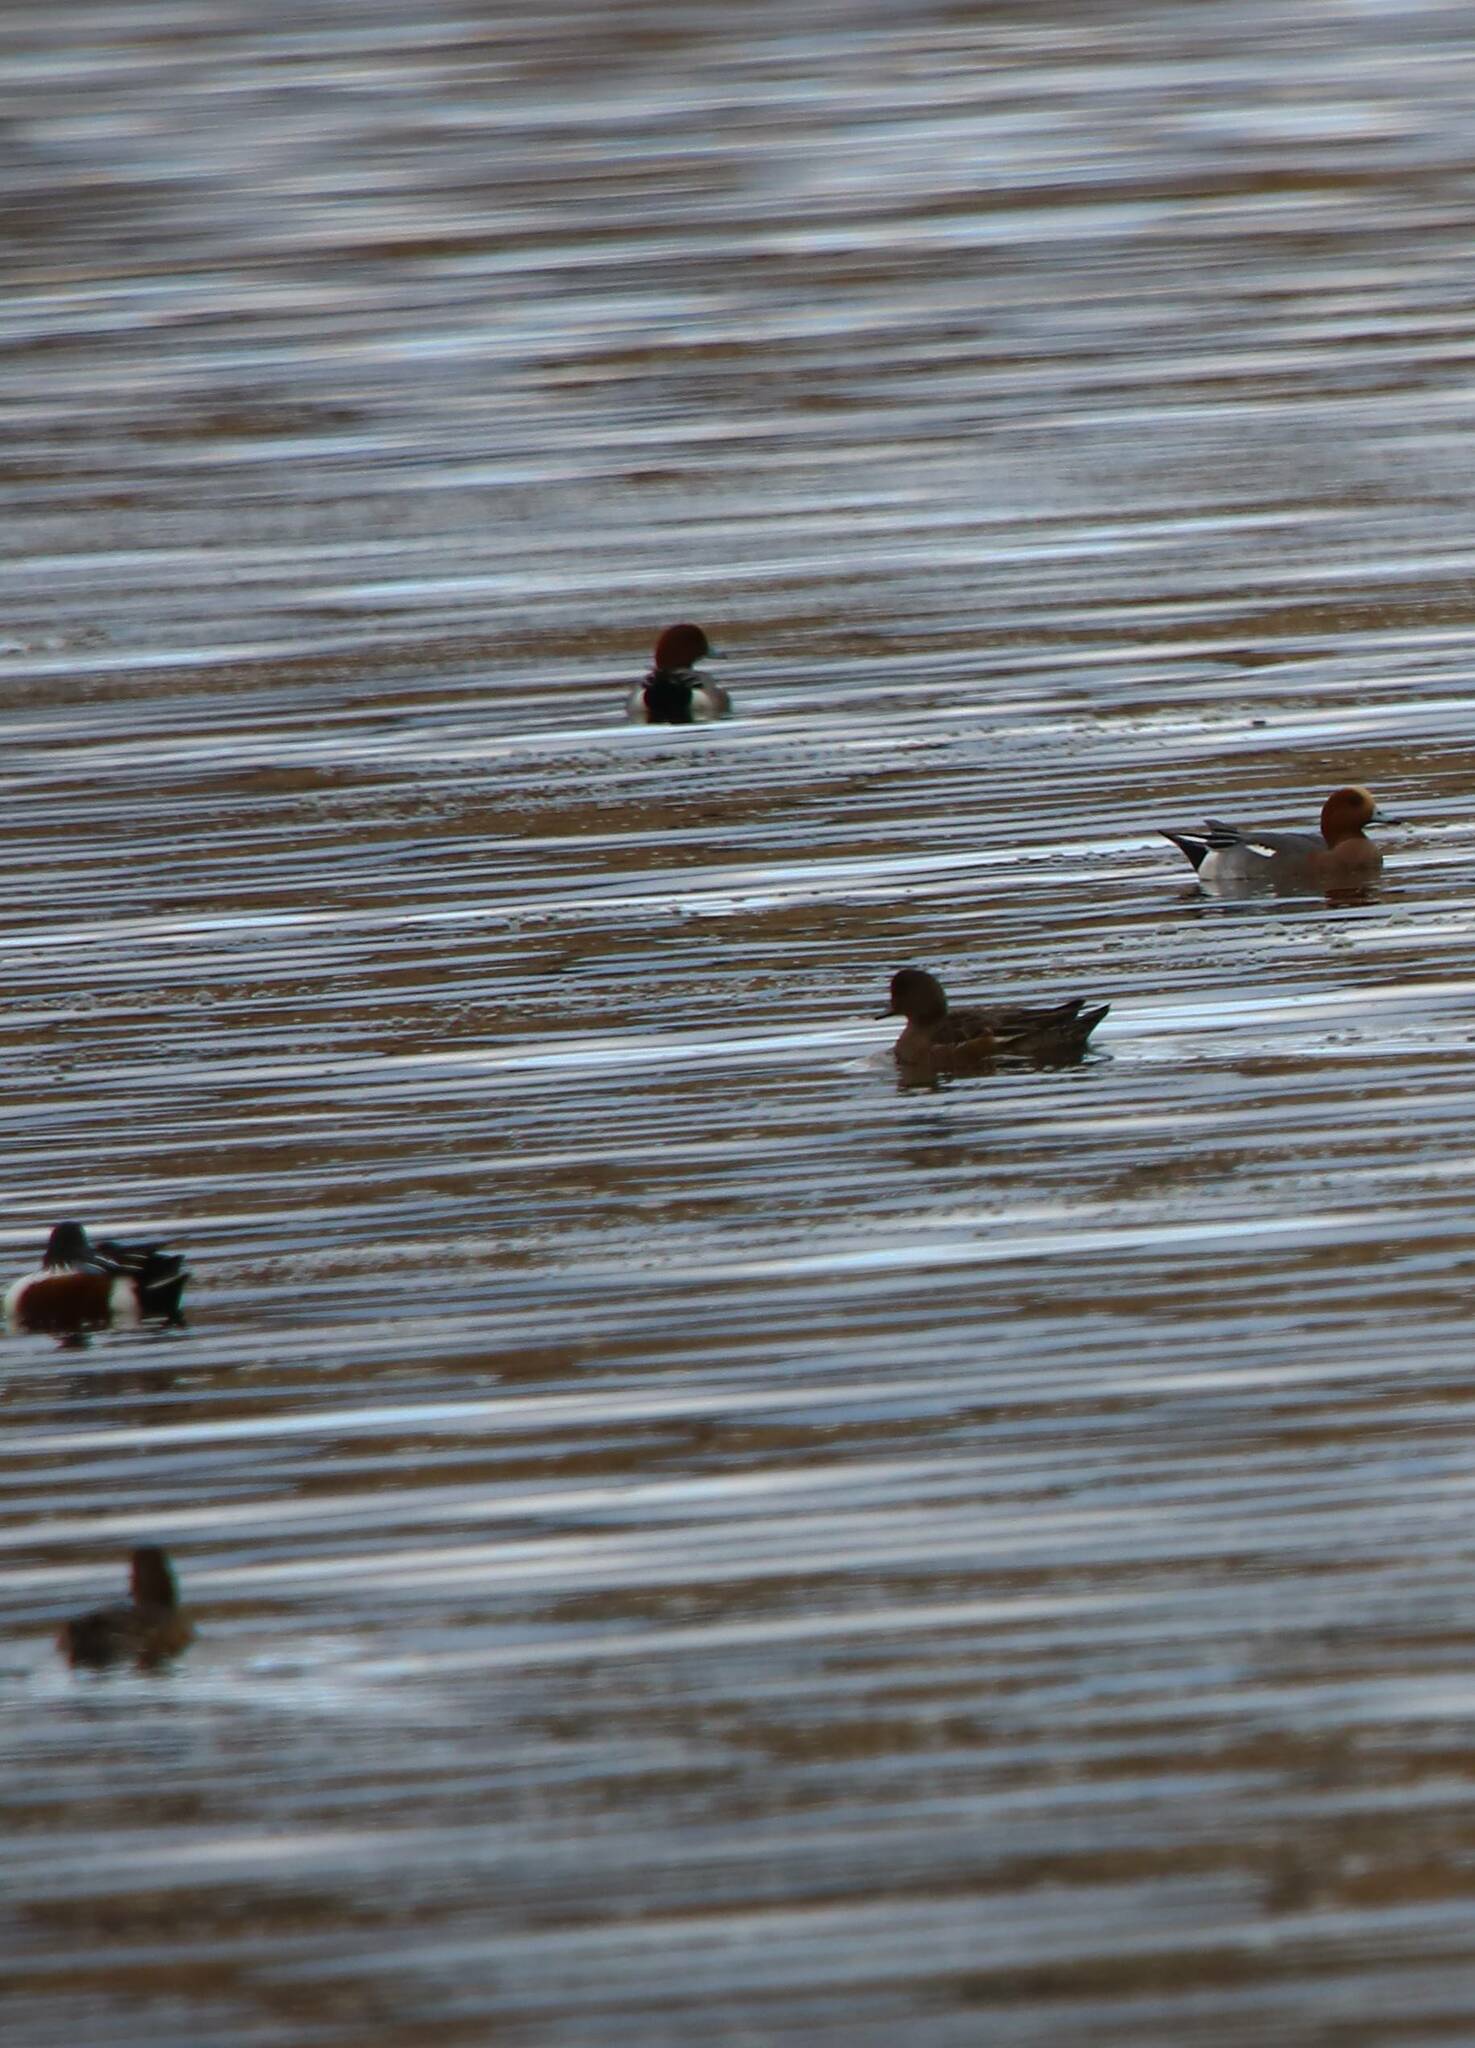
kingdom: Animalia
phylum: Chordata
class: Aves
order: Anseriformes
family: Anatidae
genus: Mareca
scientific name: Mareca penelope
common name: Eurasian wigeon
